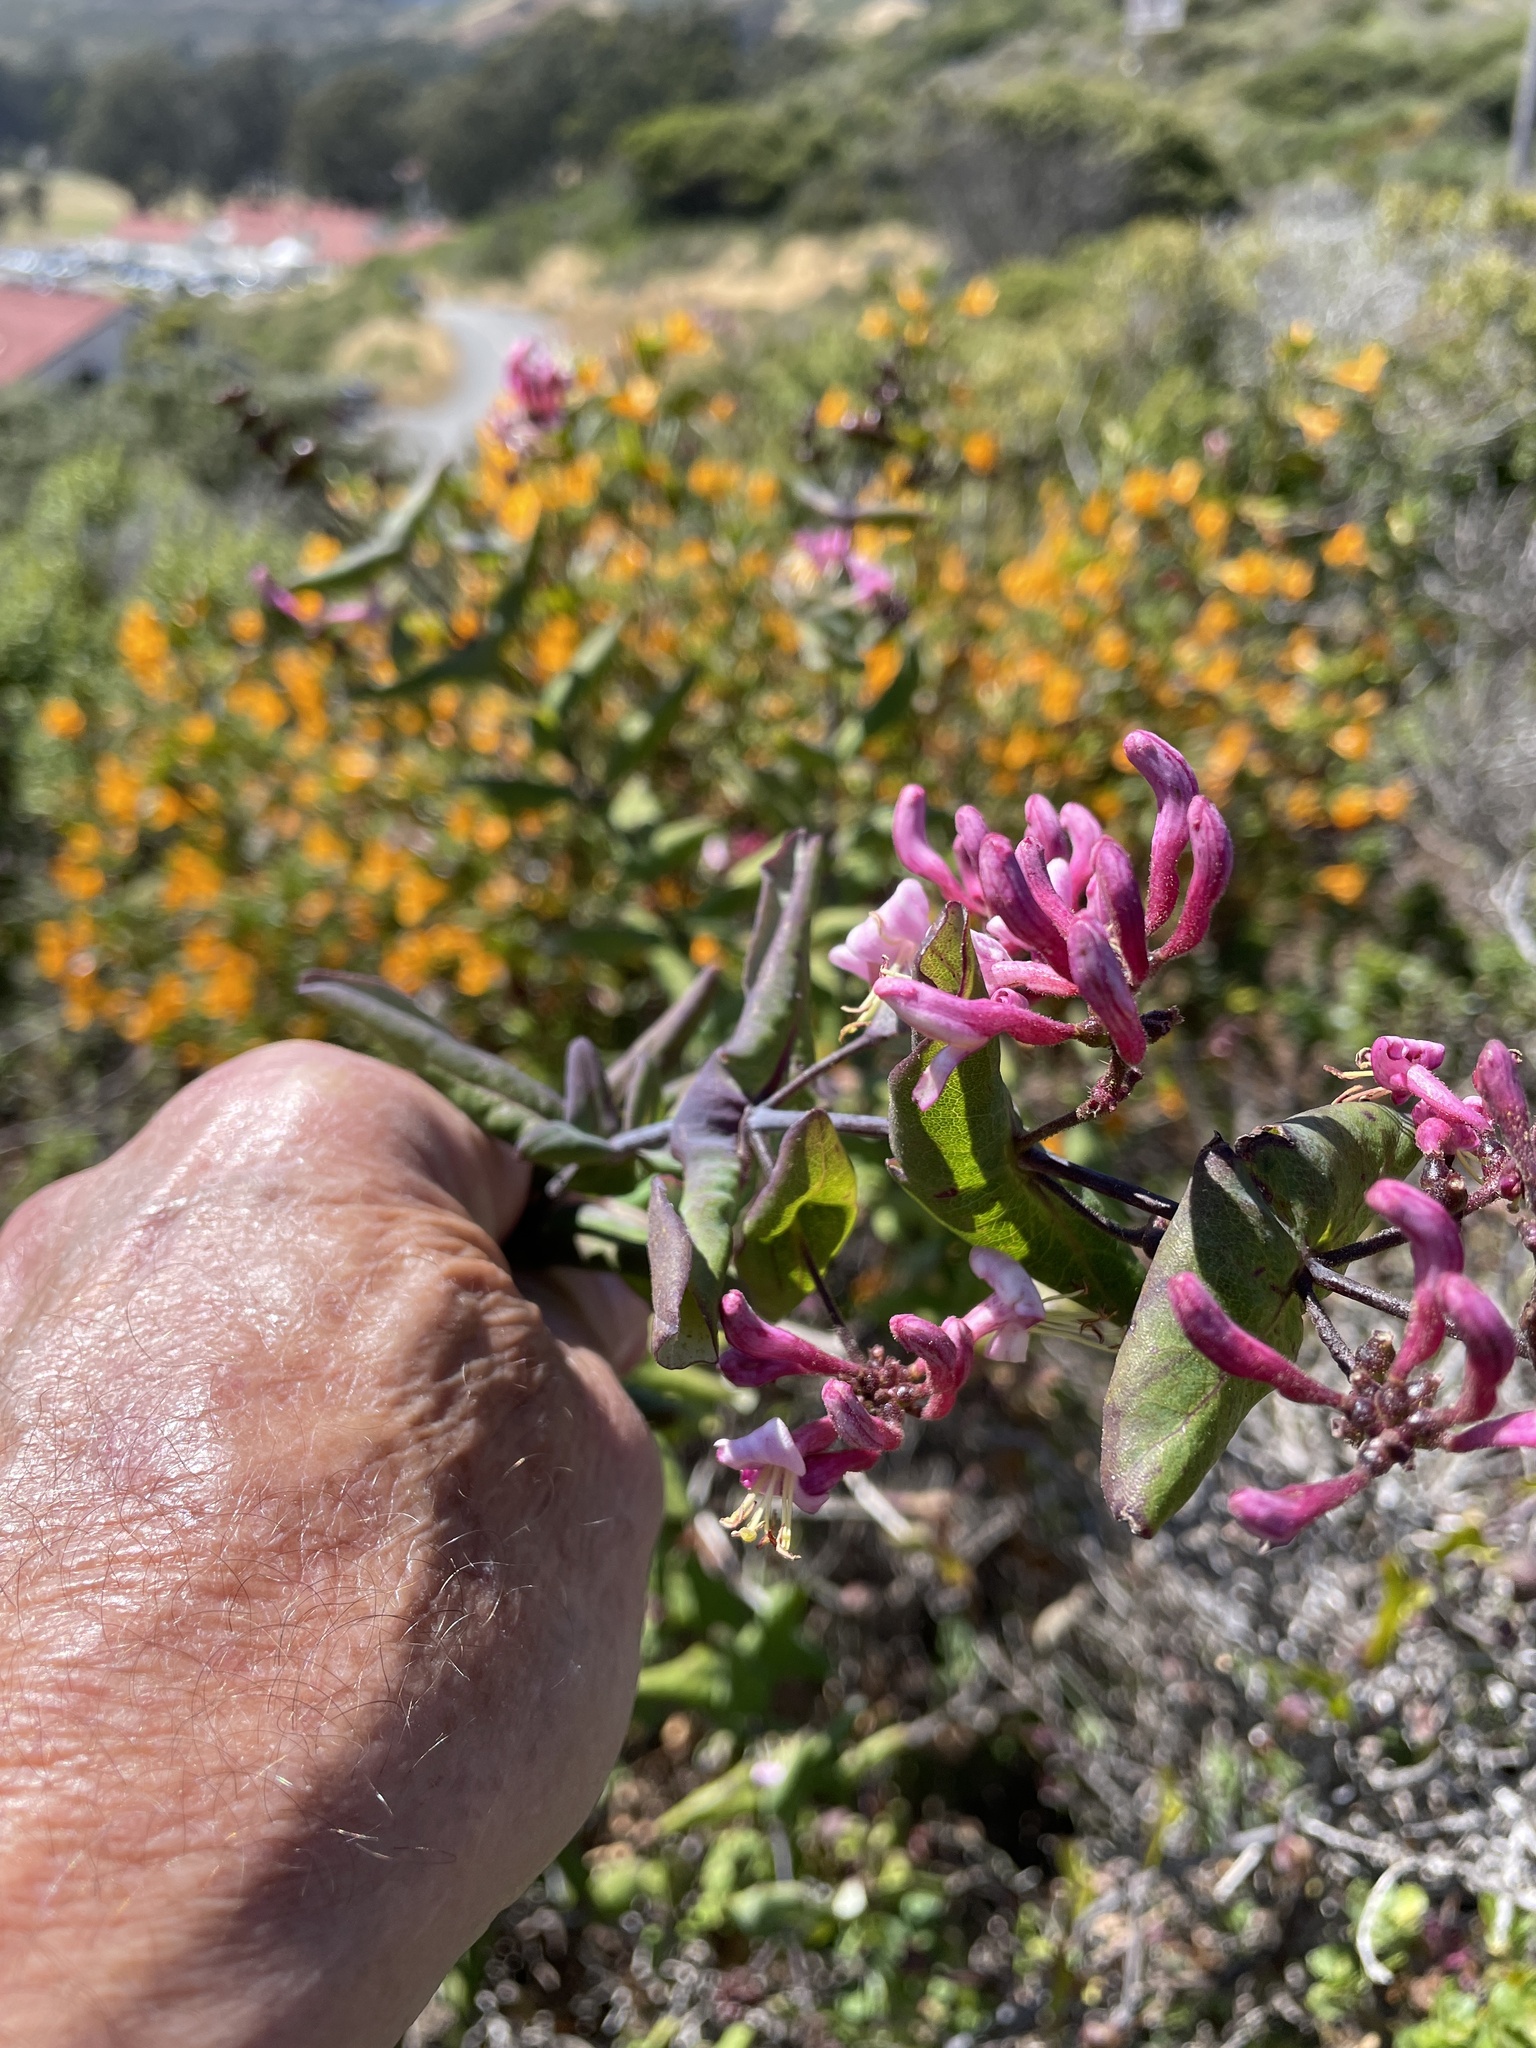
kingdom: Plantae
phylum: Tracheophyta
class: Magnoliopsida
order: Dipsacales
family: Caprifoliaceae
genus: Lonicera
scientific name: Lonicera hispidula
